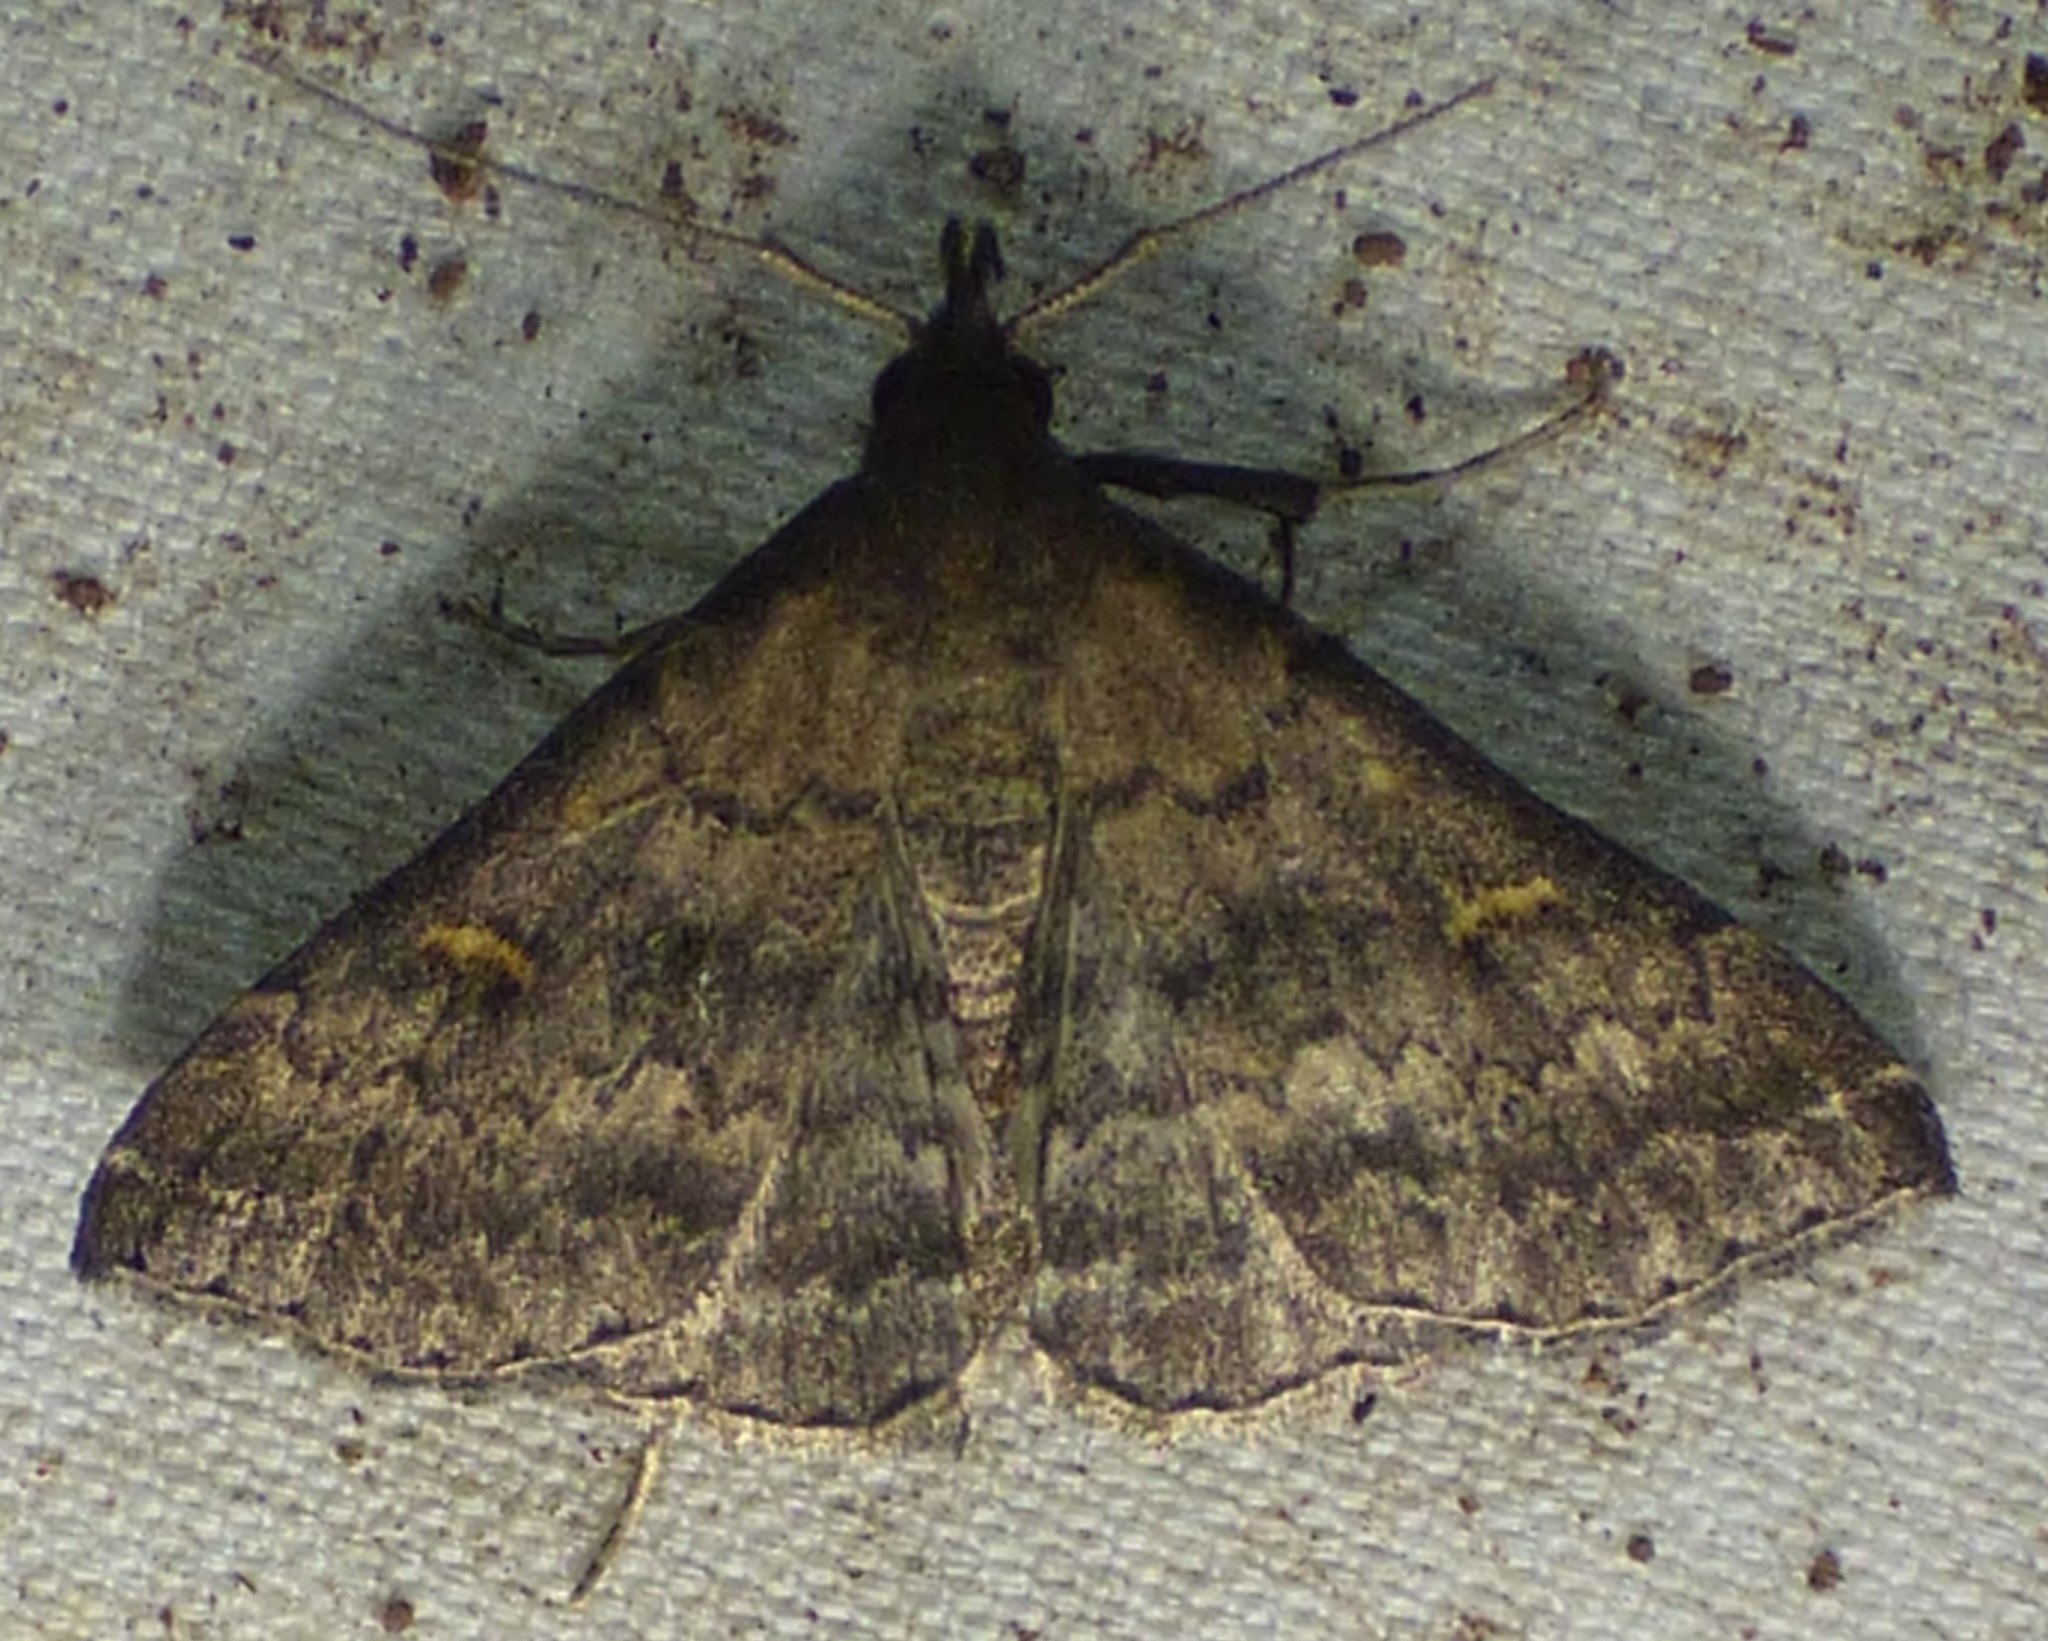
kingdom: Animalia
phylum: Arthropoda
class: Insecta
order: Lepidoptera
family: Erebidae
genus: Tetanolita
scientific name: Tetanolita floridana
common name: Florida tetanolita moth
